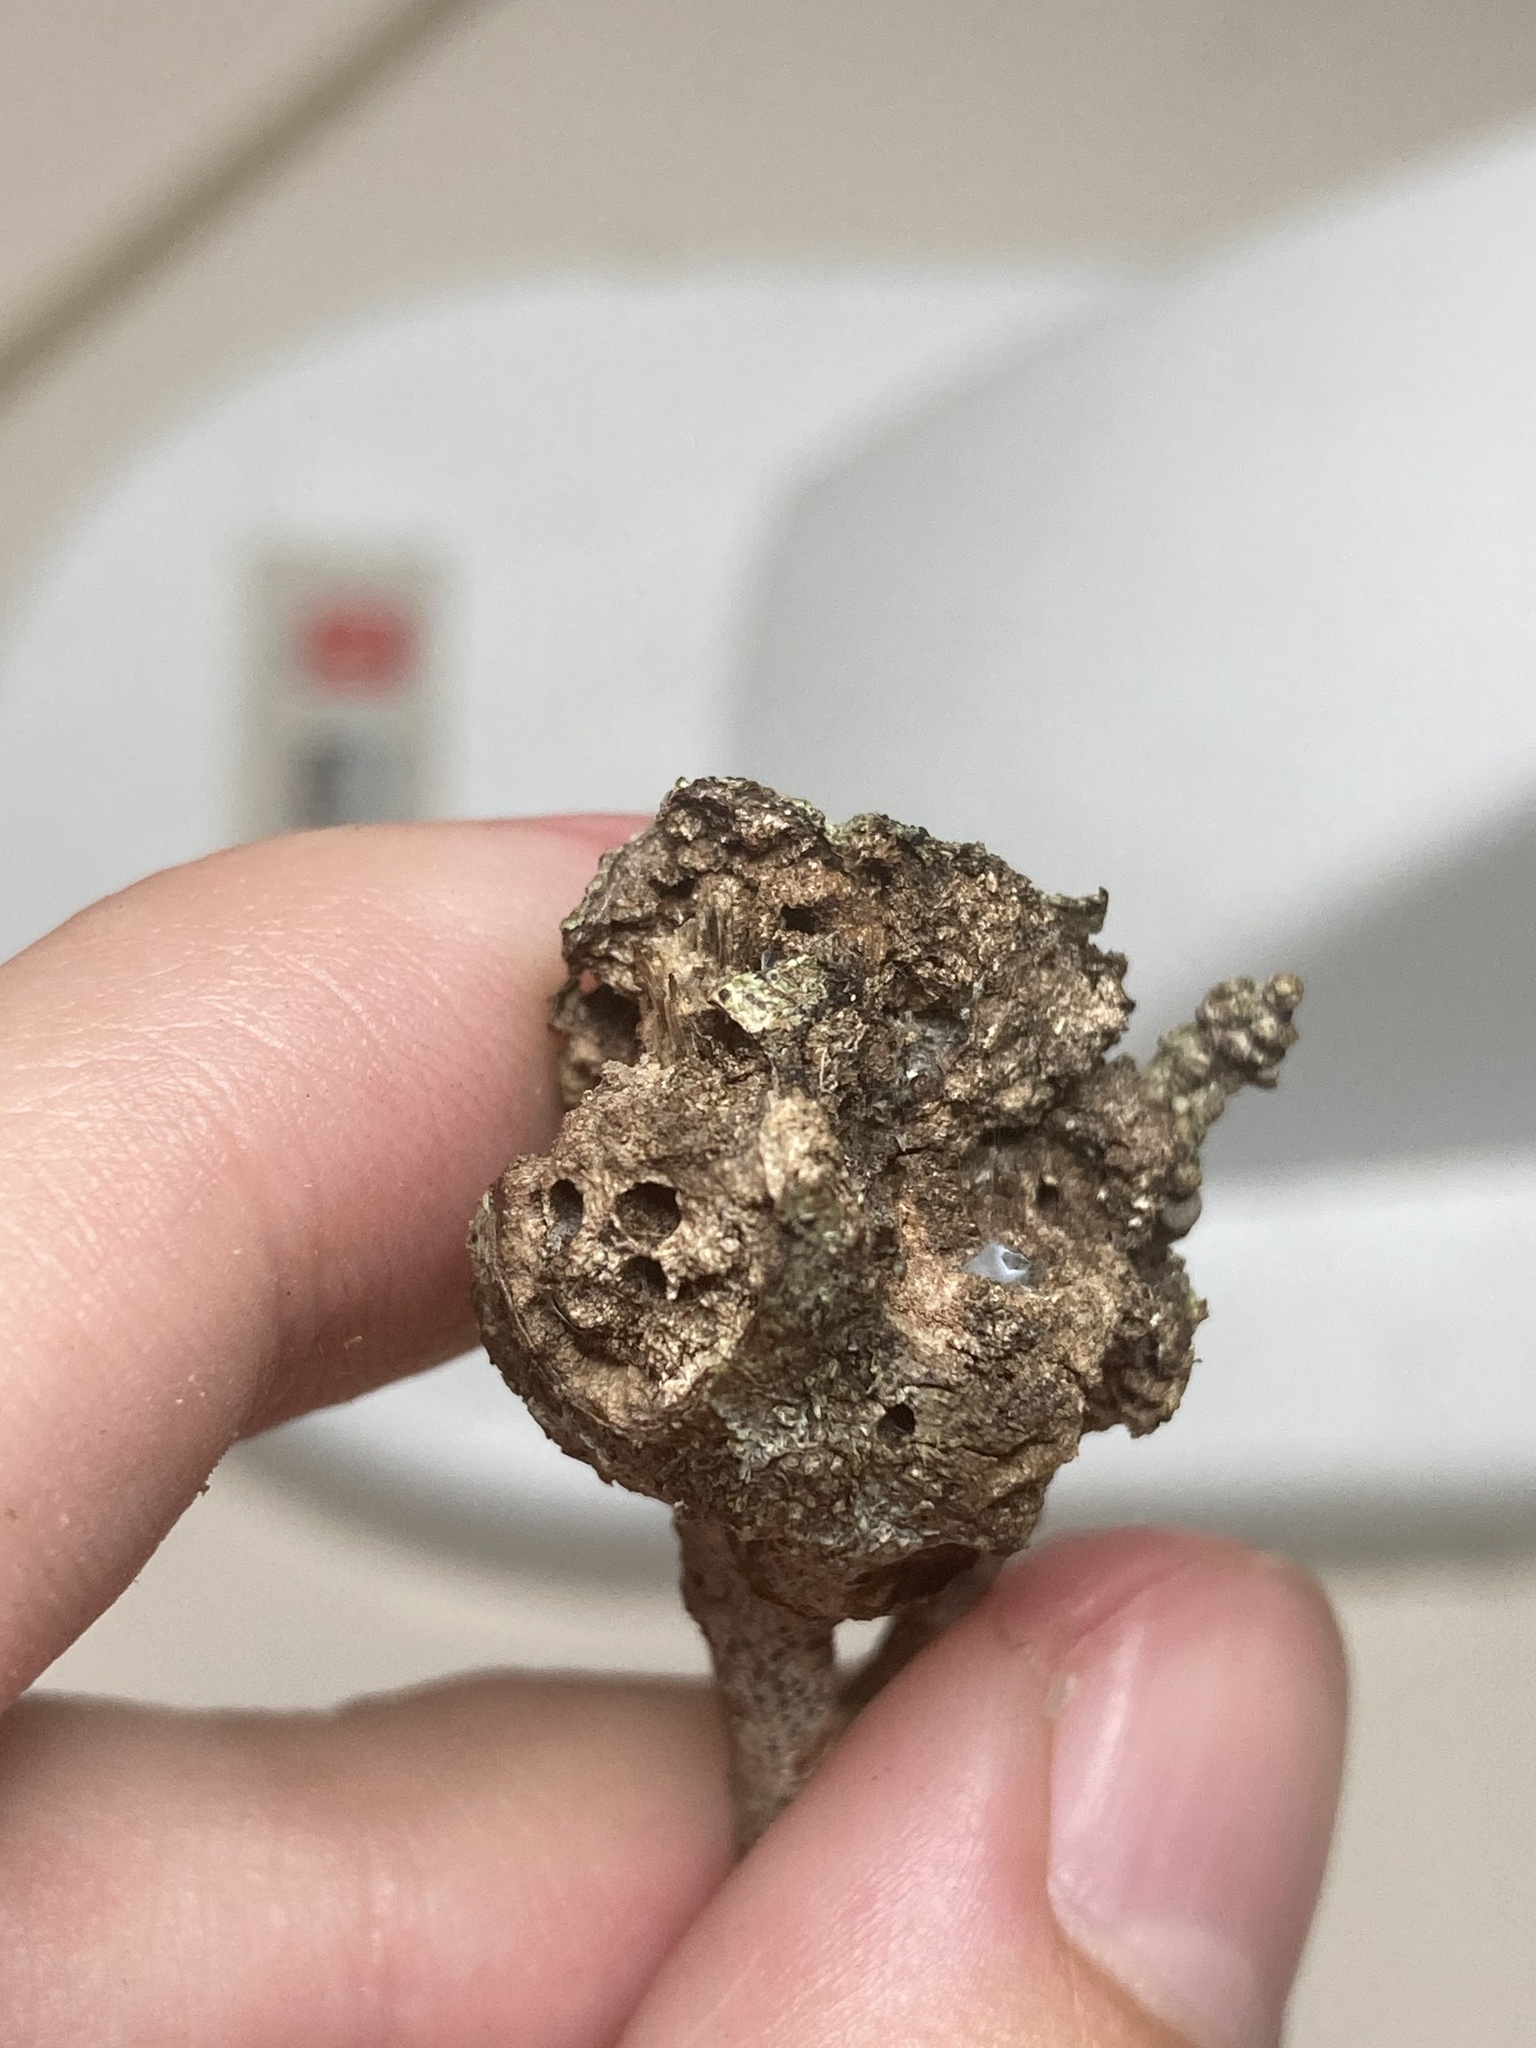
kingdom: Animalia
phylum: Arthropoda
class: Insecta
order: Hymenoptera
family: Cynipidae
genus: Callirhytis
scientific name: Callirhytis
